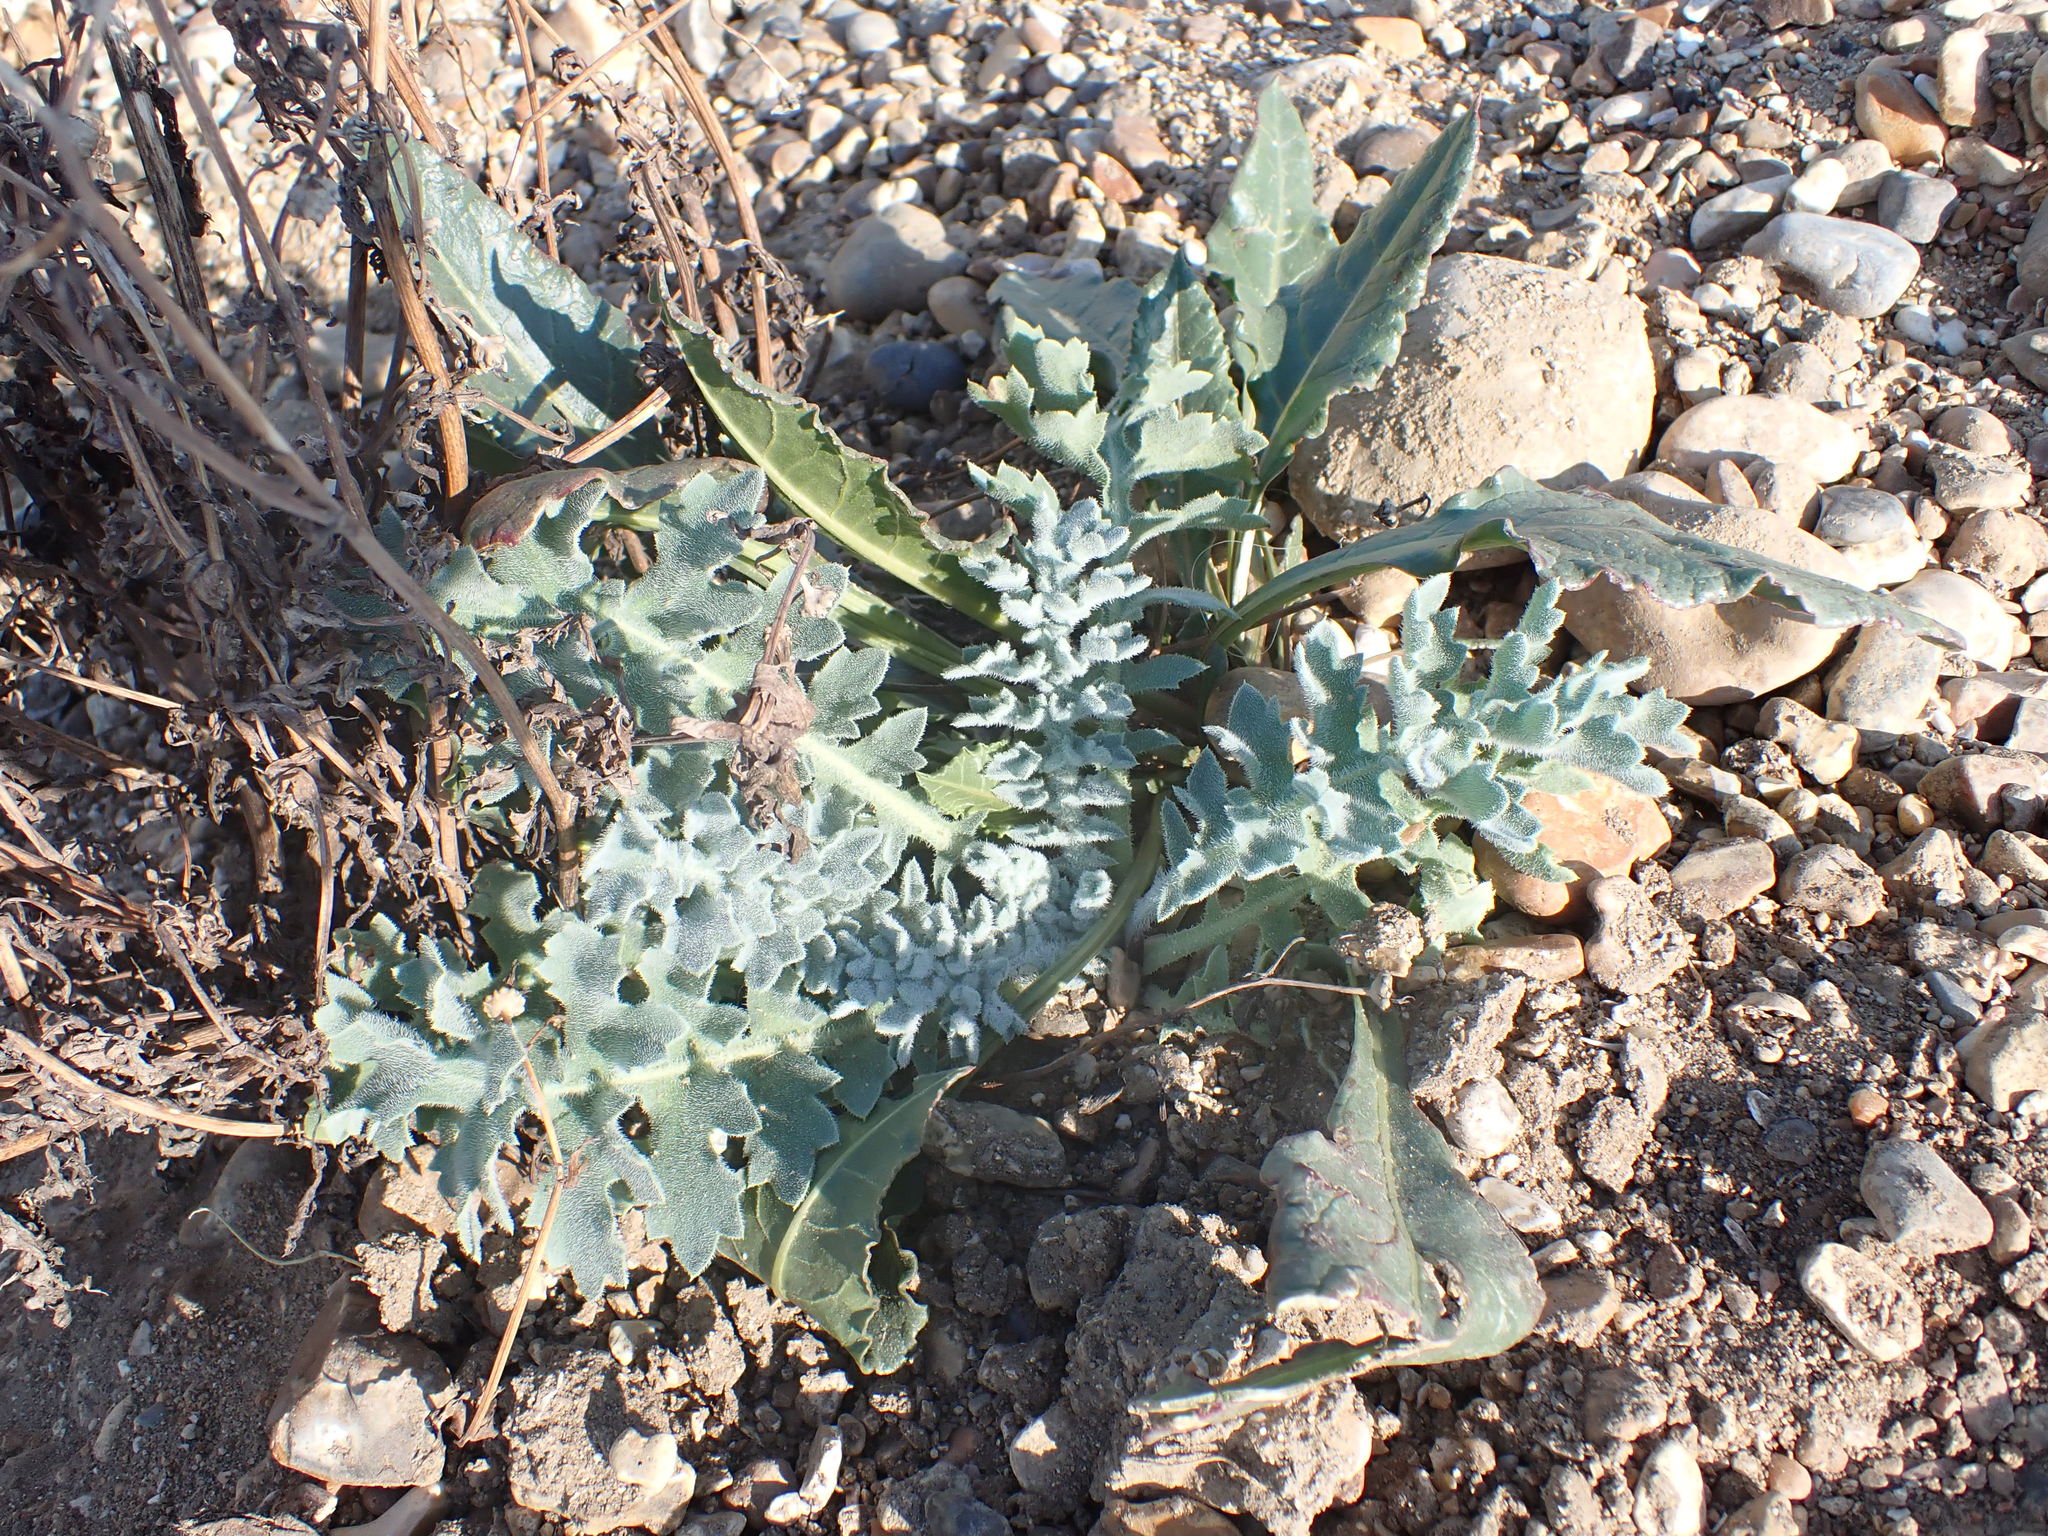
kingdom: Plantae
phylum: Tracheophyta
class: Magnoliopsida
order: Ranunculales
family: Papaveraceae
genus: Glaucium
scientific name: Glaucium flavum
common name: Yellow horned-poppy
